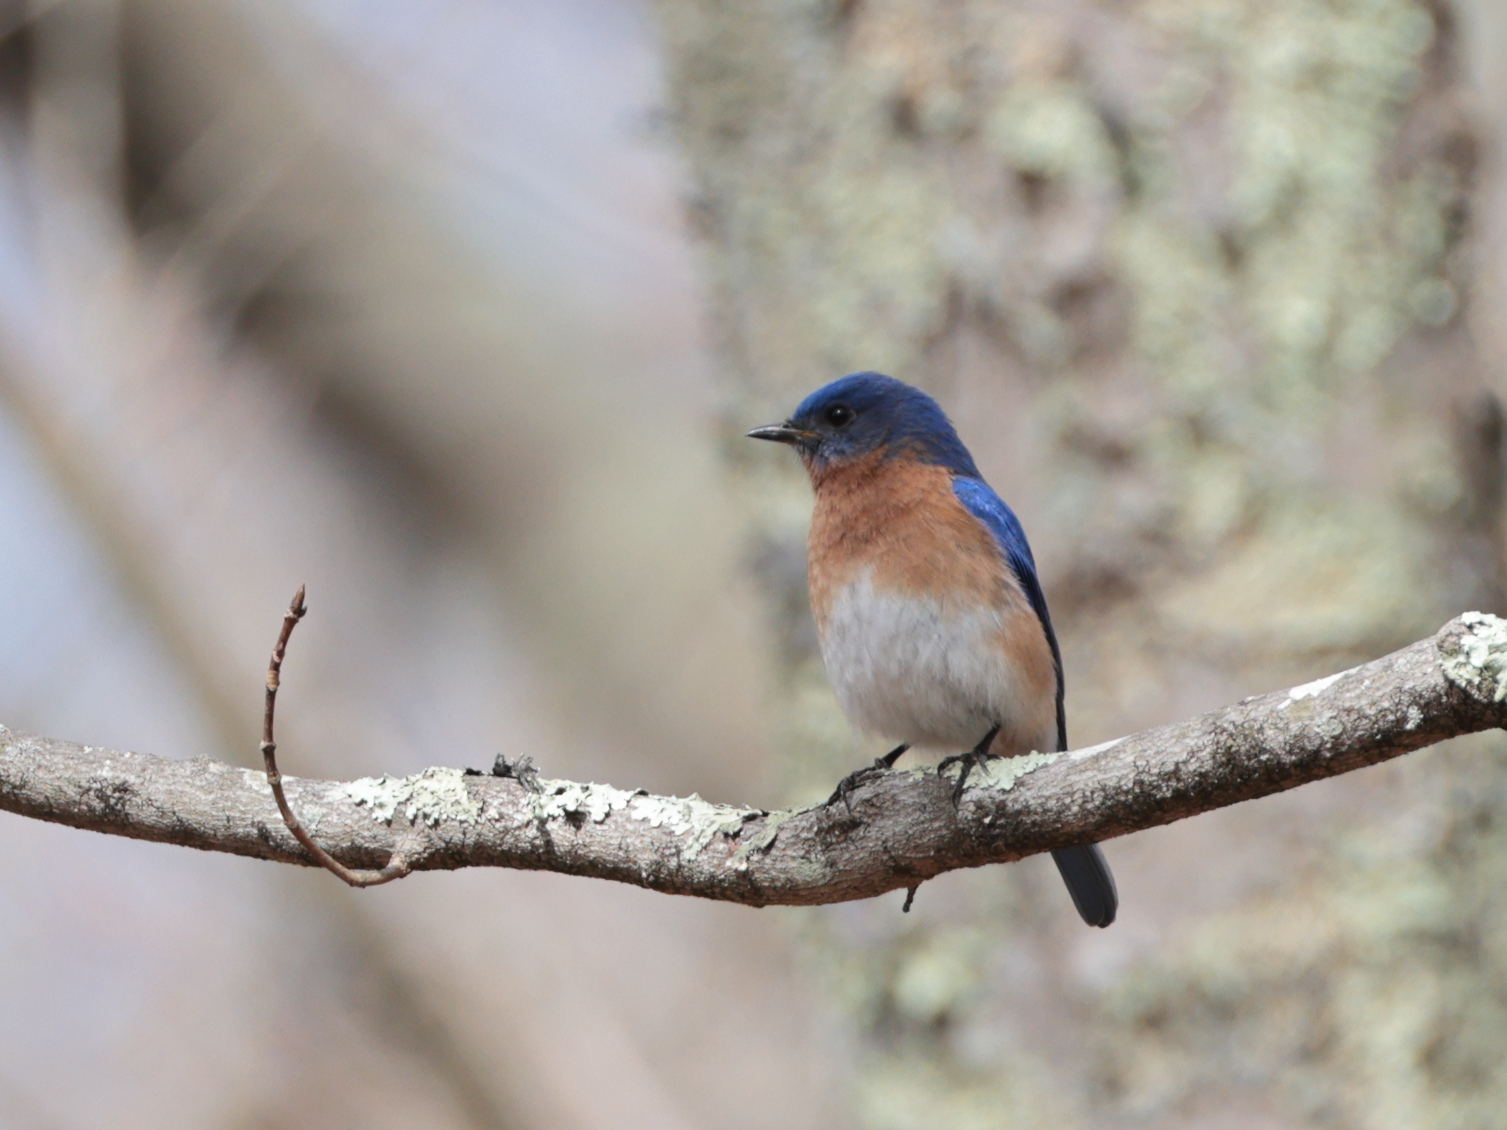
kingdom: Animalia
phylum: Chordata
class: Aves
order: Passeriformes
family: Turdidae
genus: Sialia
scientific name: Sialia sialis
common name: Eastern bluebird
